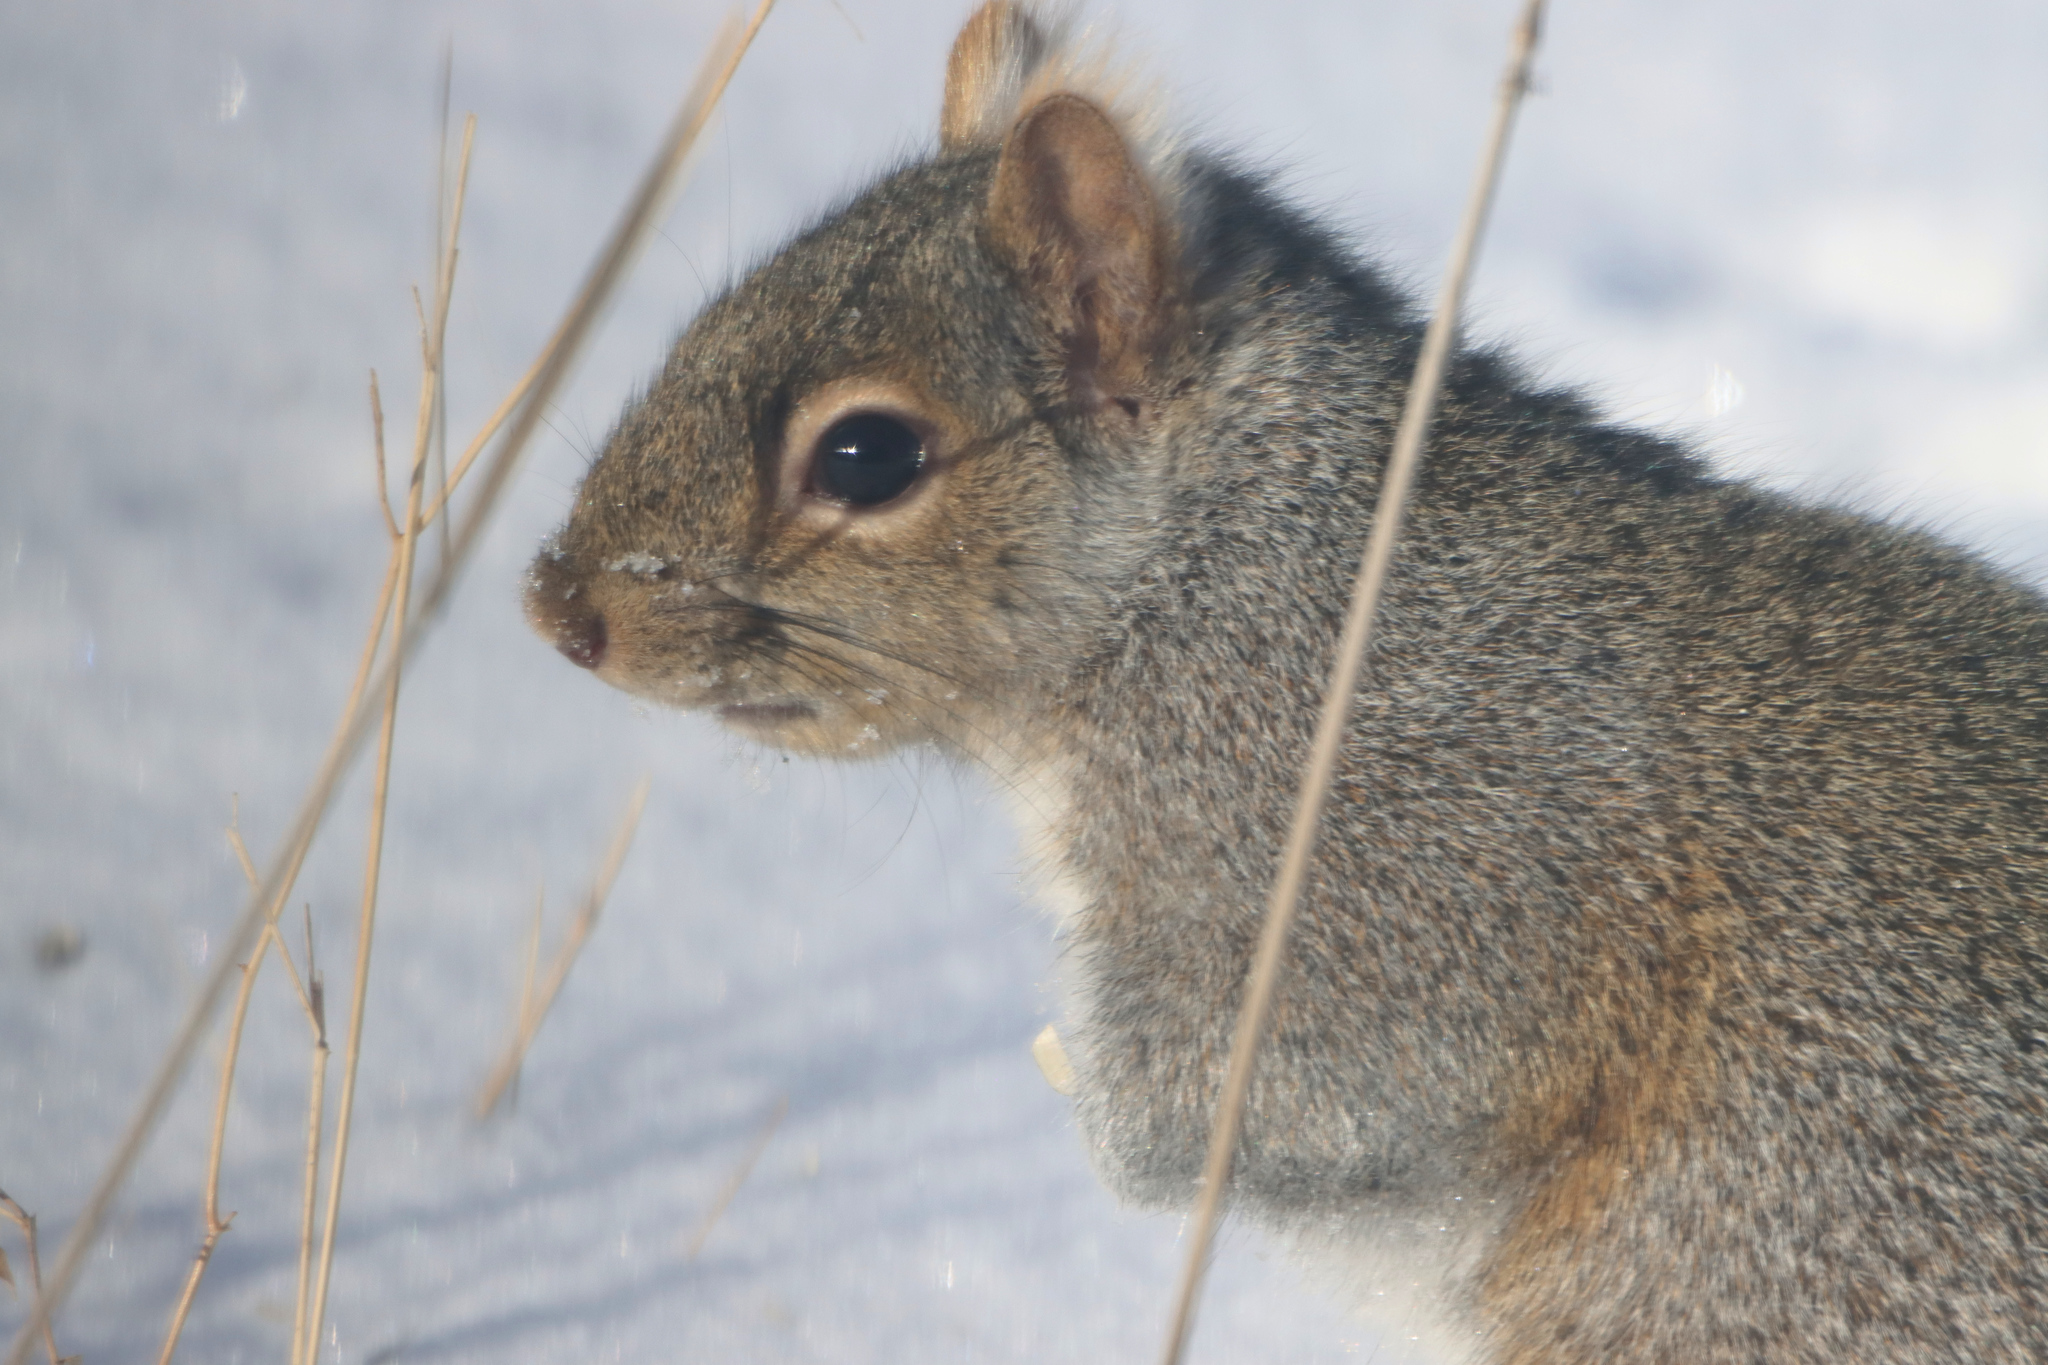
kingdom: Animalia
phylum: Chordata
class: Mammalia
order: Rodentia
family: Sciuridae
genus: Sciurus
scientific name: Sciurus carolinensis
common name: Eastern gray squirrel
